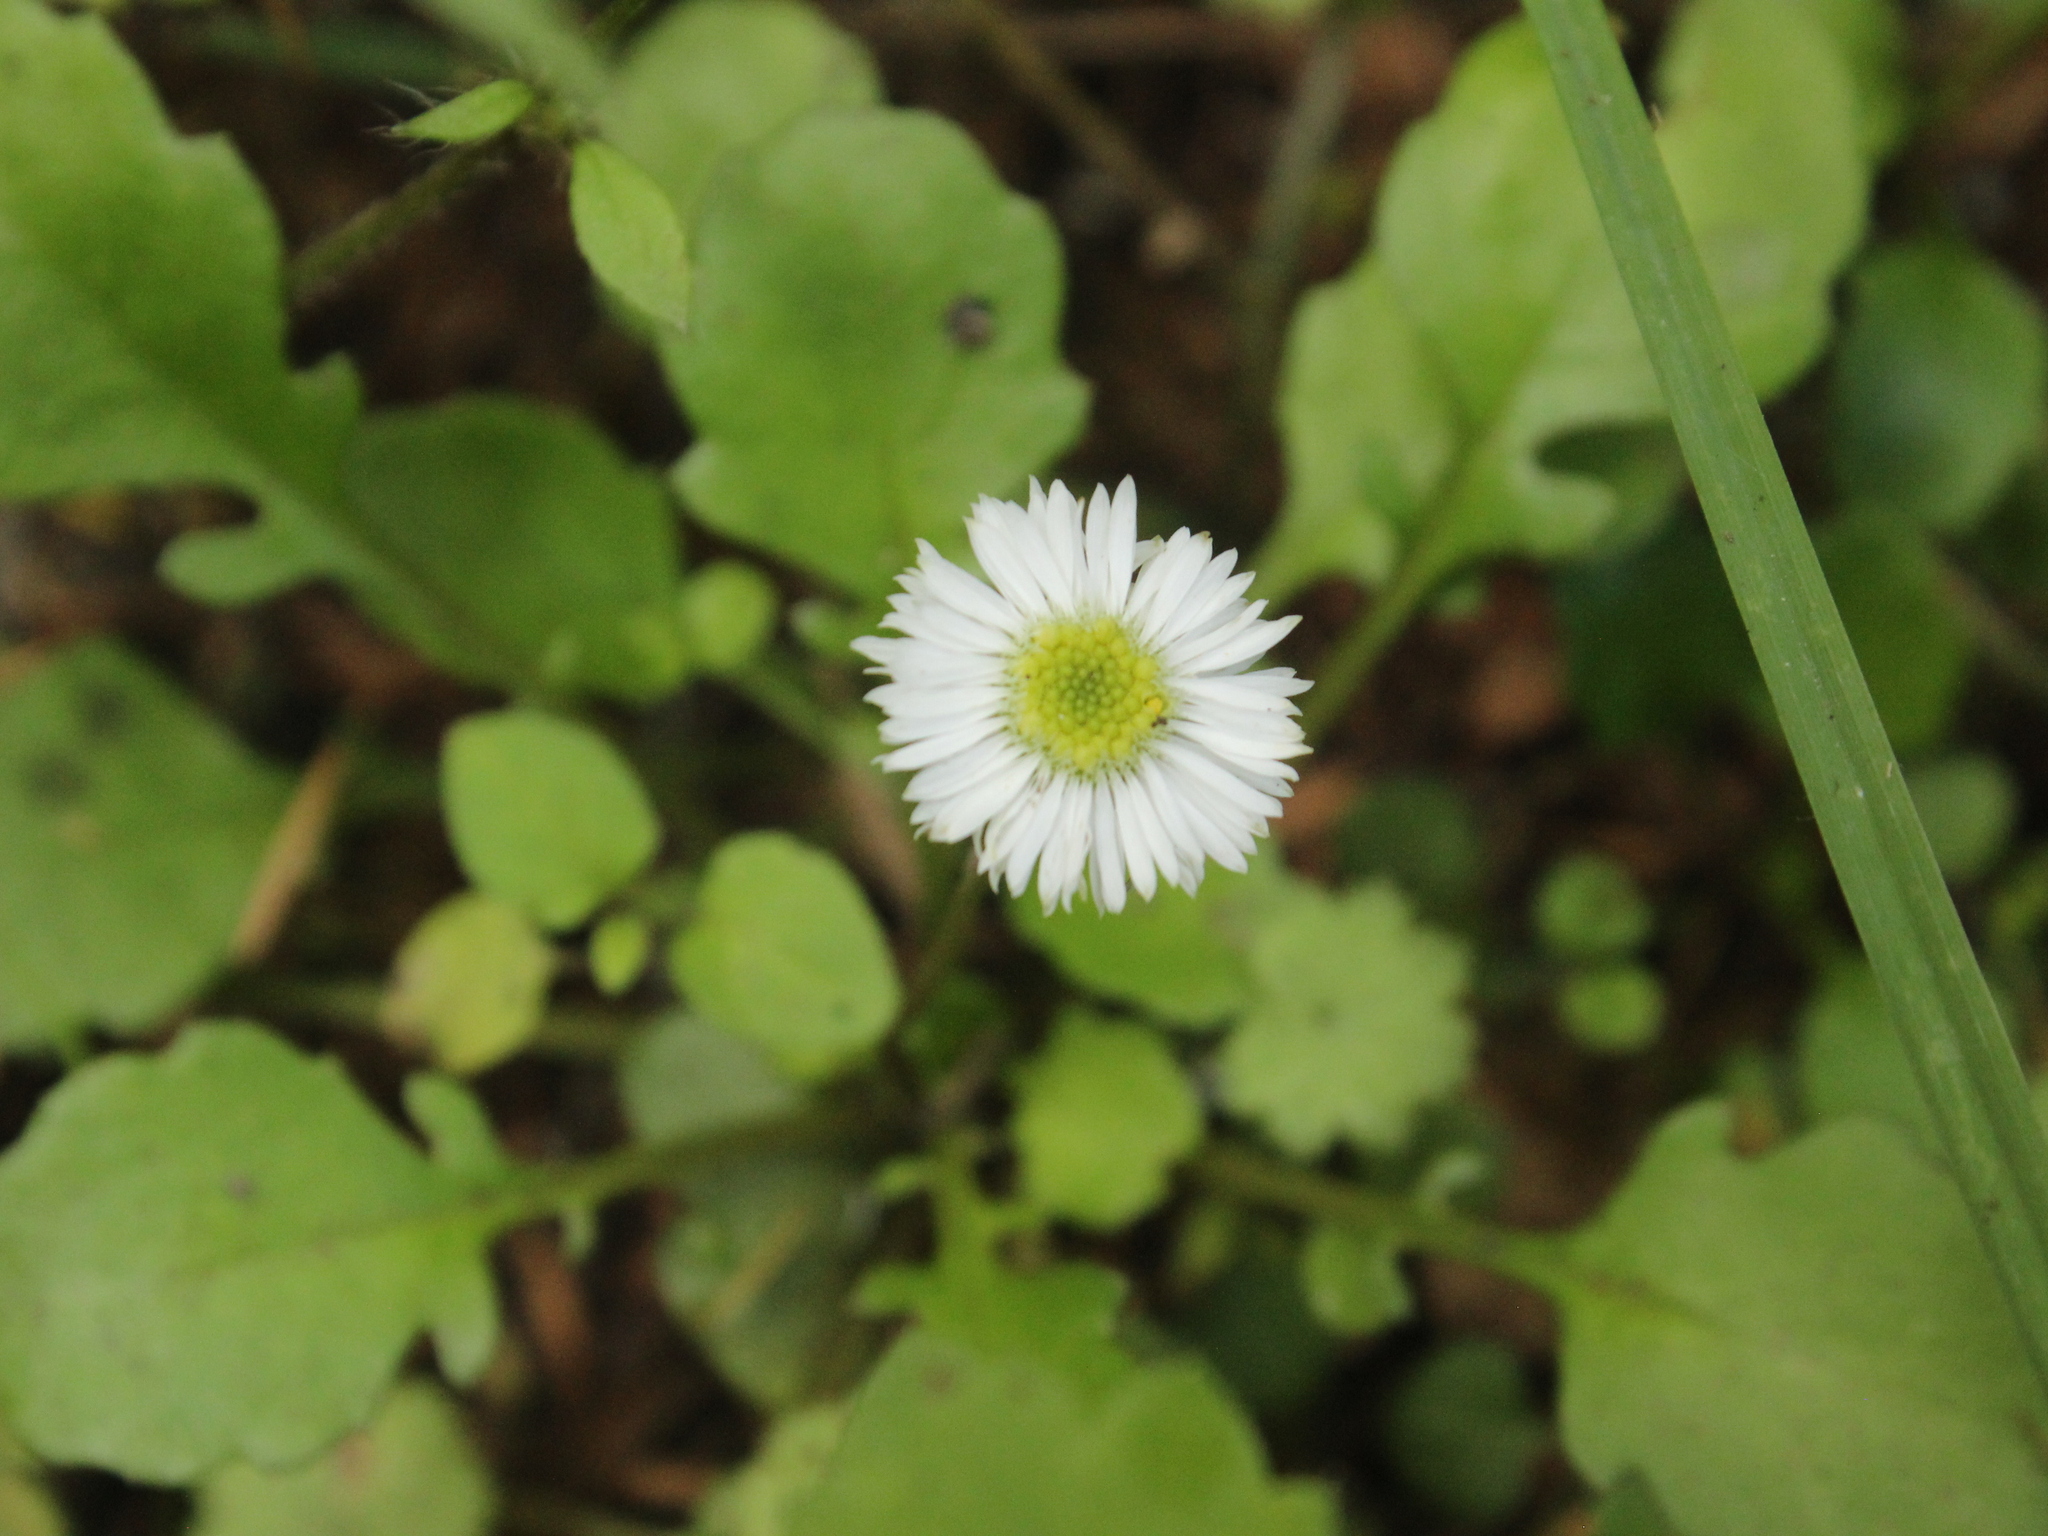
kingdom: Plantae
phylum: Tracheophyta
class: Magnoliopsida
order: Asterales
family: Asteraceae
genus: Lagenophora
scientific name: Lagenophora pumila
